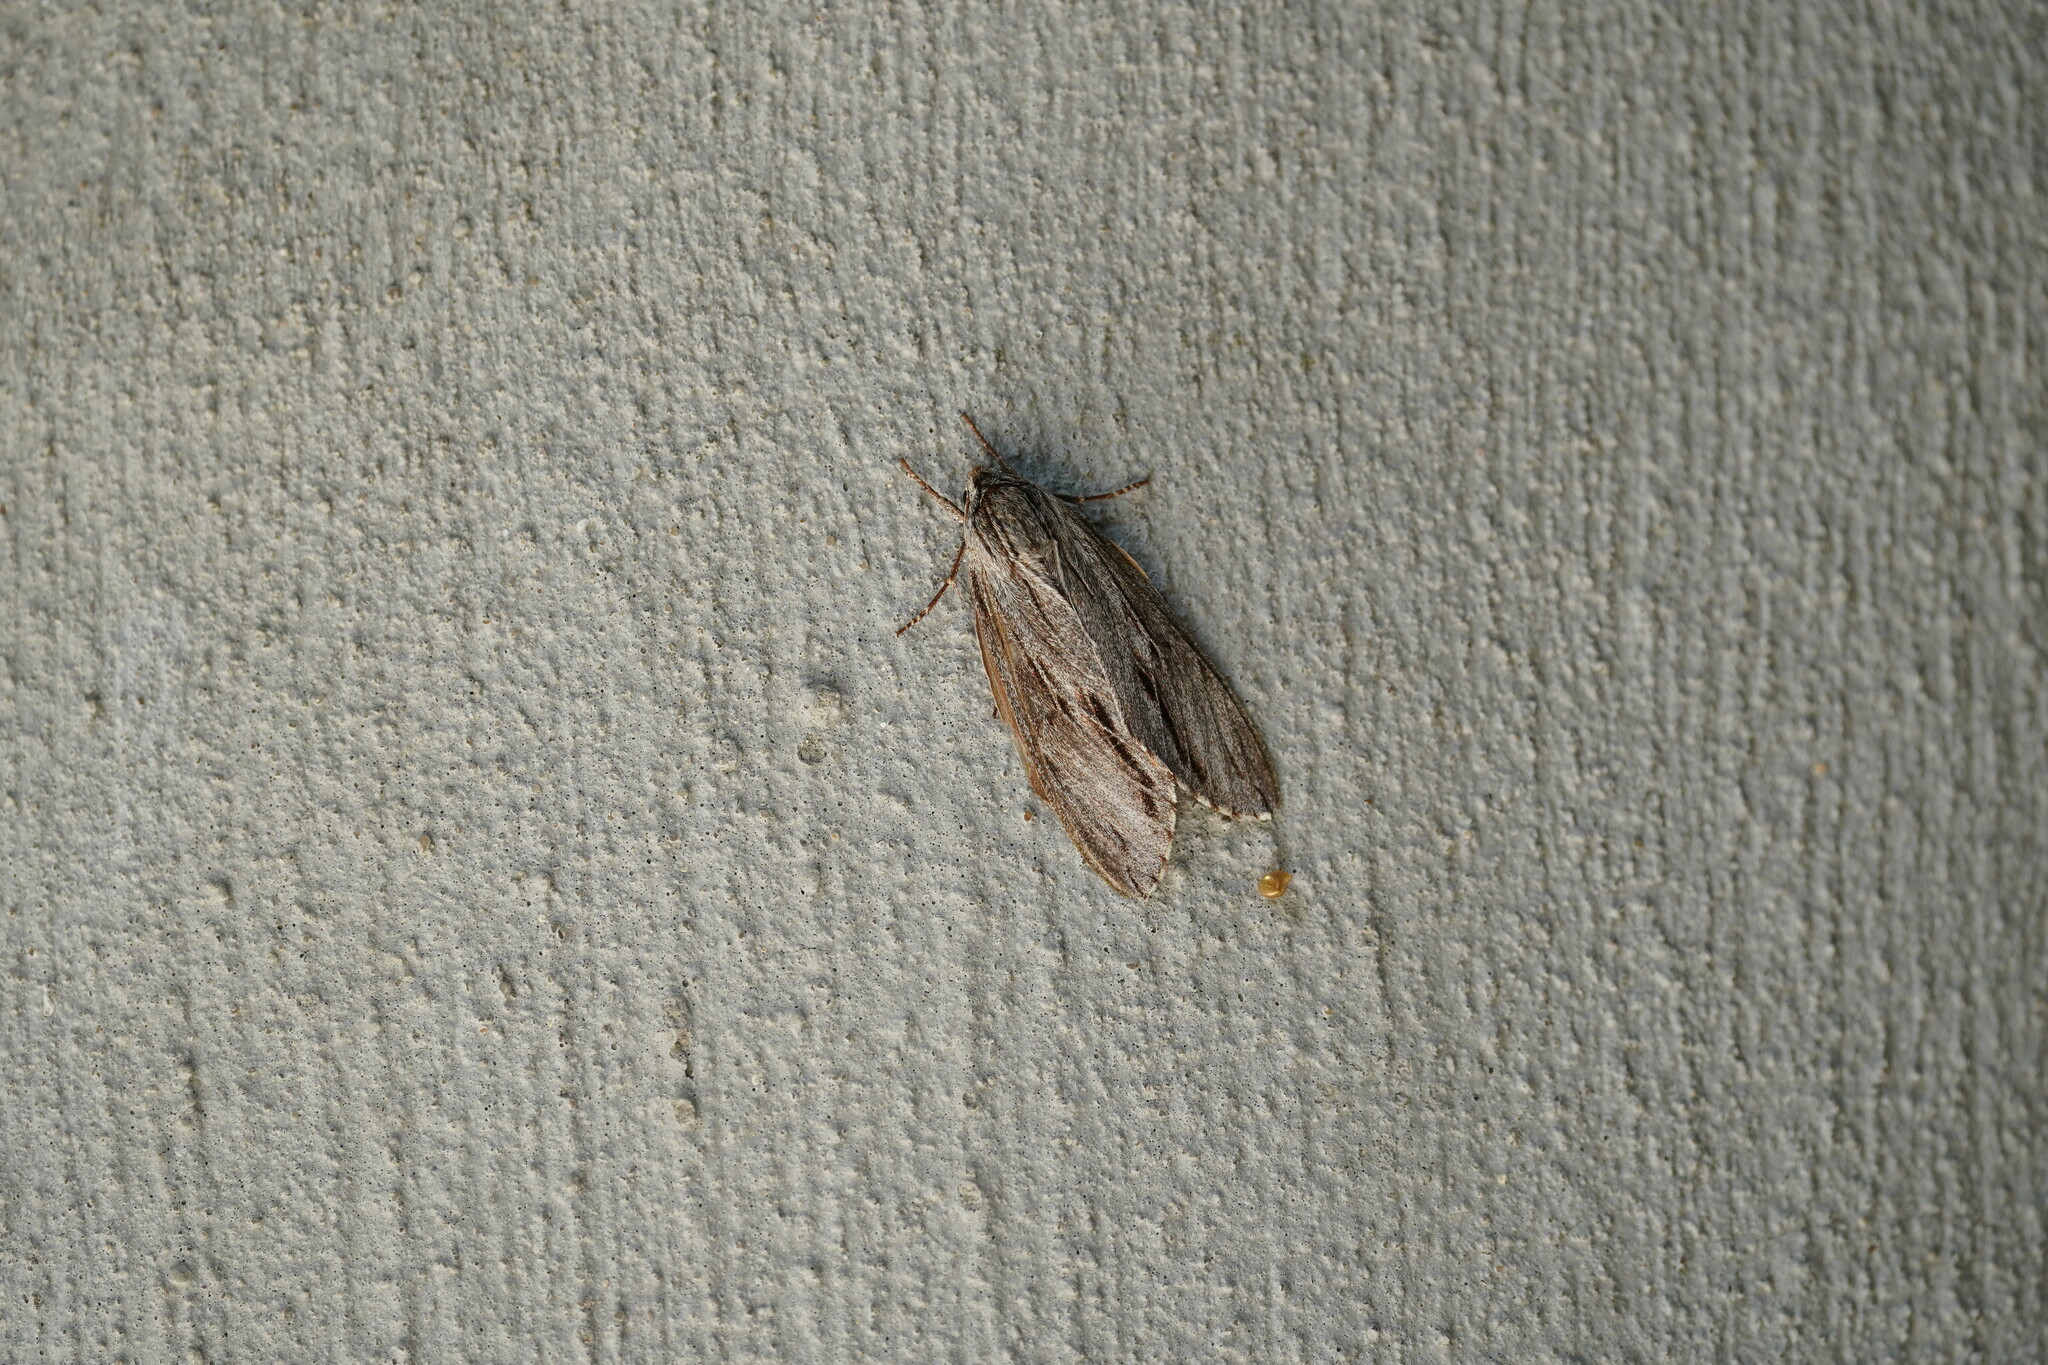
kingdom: Animalia
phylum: Arthropoda
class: Insecta
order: Lepidoptera
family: Sphingidae
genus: Isoparce
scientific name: Isoparce cupressi
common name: Cypress sphinx
